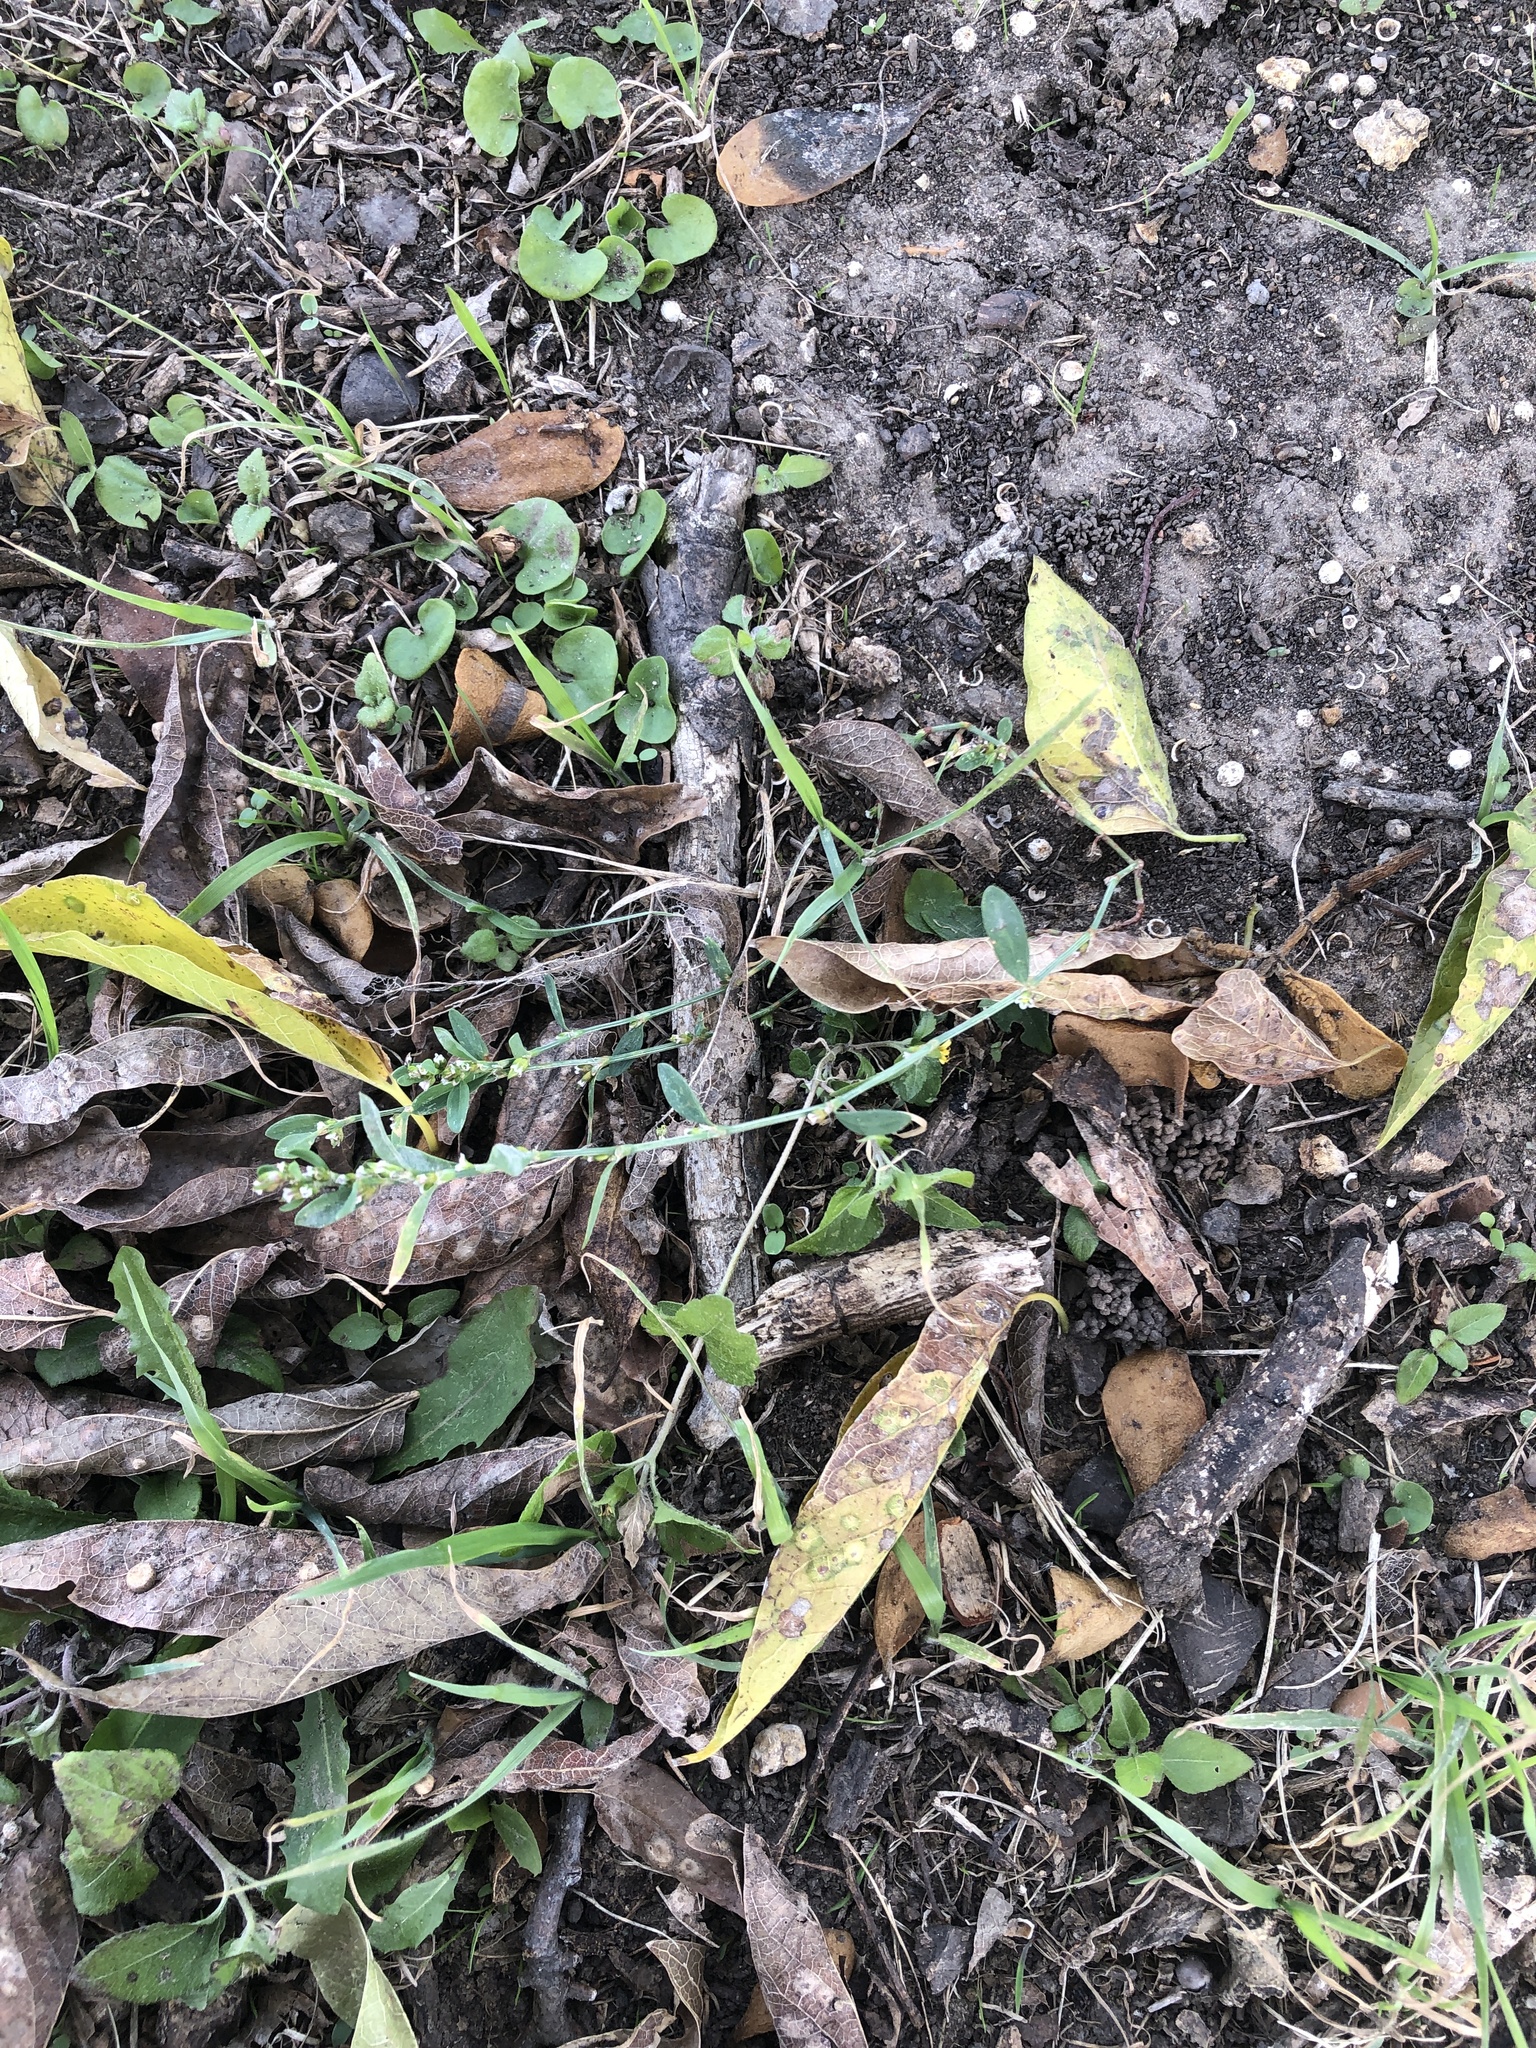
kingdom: Plantae
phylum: Tracheophyta
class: Magnoliopsida
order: Caryophyllales
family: Polygonaceae
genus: Polygonum
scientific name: Polygonum aviculare
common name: Prostrate knotweed
